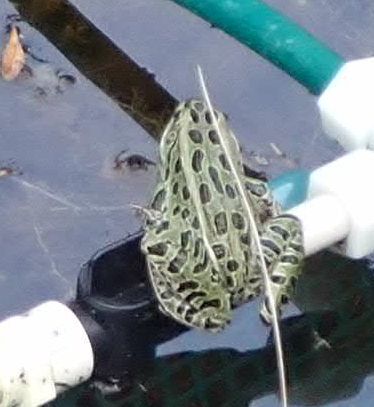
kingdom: Animalia
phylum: Chordata
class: Amphibia
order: Anura
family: Ranidae
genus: Lithobates
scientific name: Lithobates pipiens
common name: Northern leopard frog
